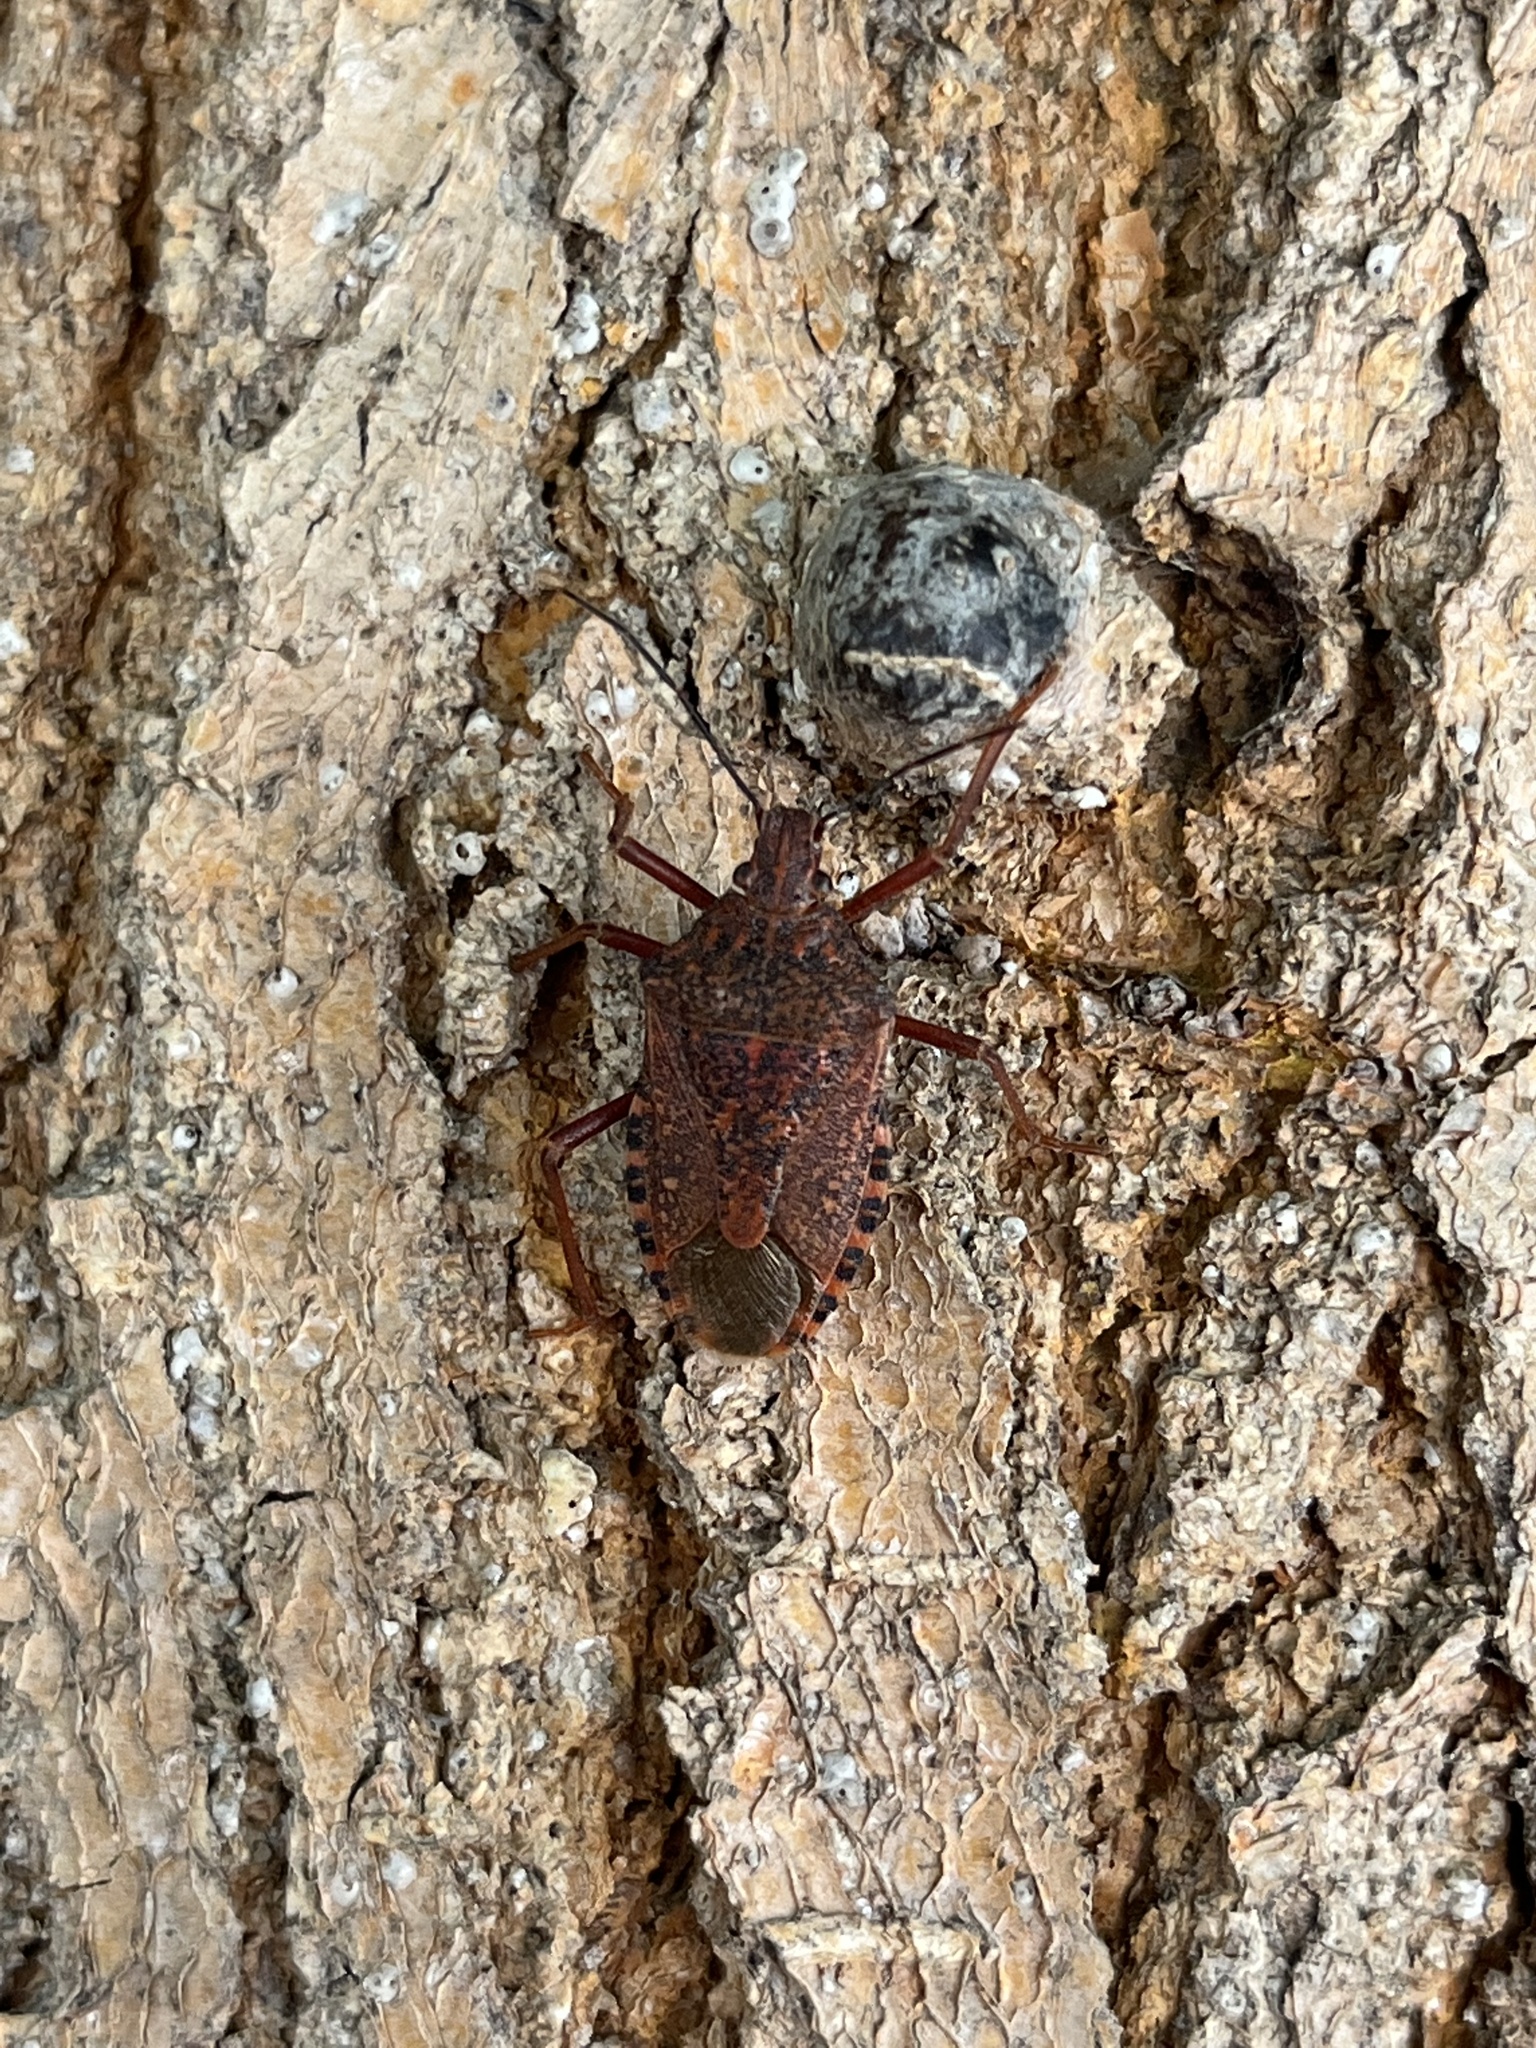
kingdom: Animalia
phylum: Arthropoda
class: Insecta
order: Hemiptera
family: Pentatomidae
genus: Apodiphus
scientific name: Apodiphus
